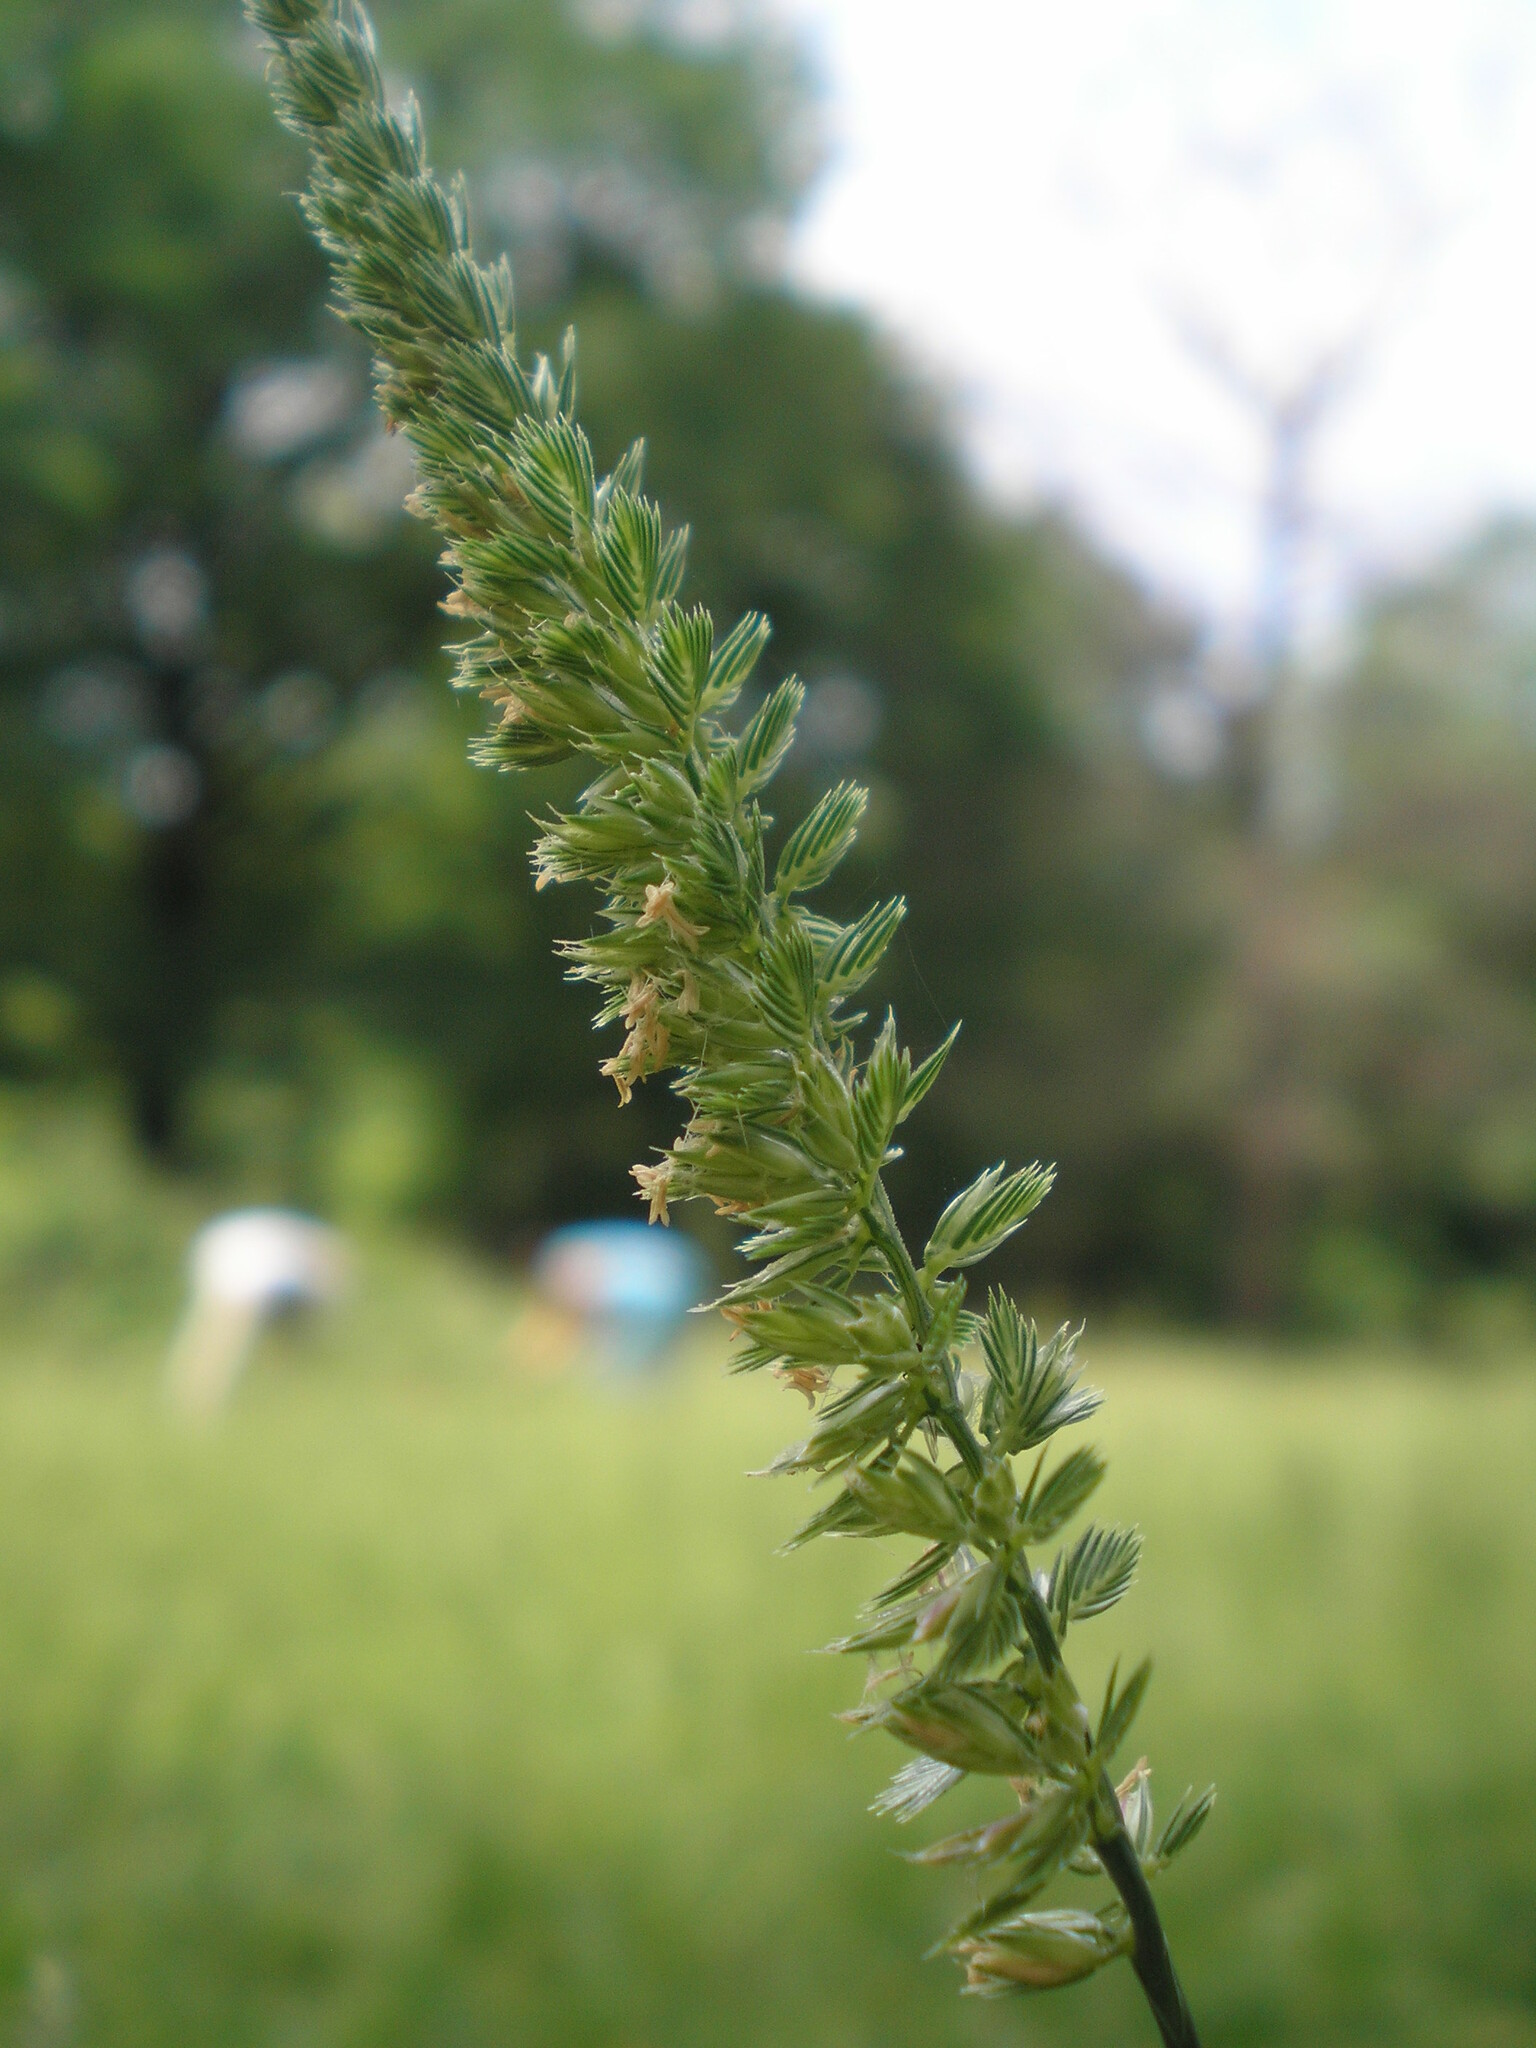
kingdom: Plantae
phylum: Tracheophyta
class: Liliopsida
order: Poales
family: Poaceae
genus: Cynosurus
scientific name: Cynosurus cristatus
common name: Crested dog's-tail
